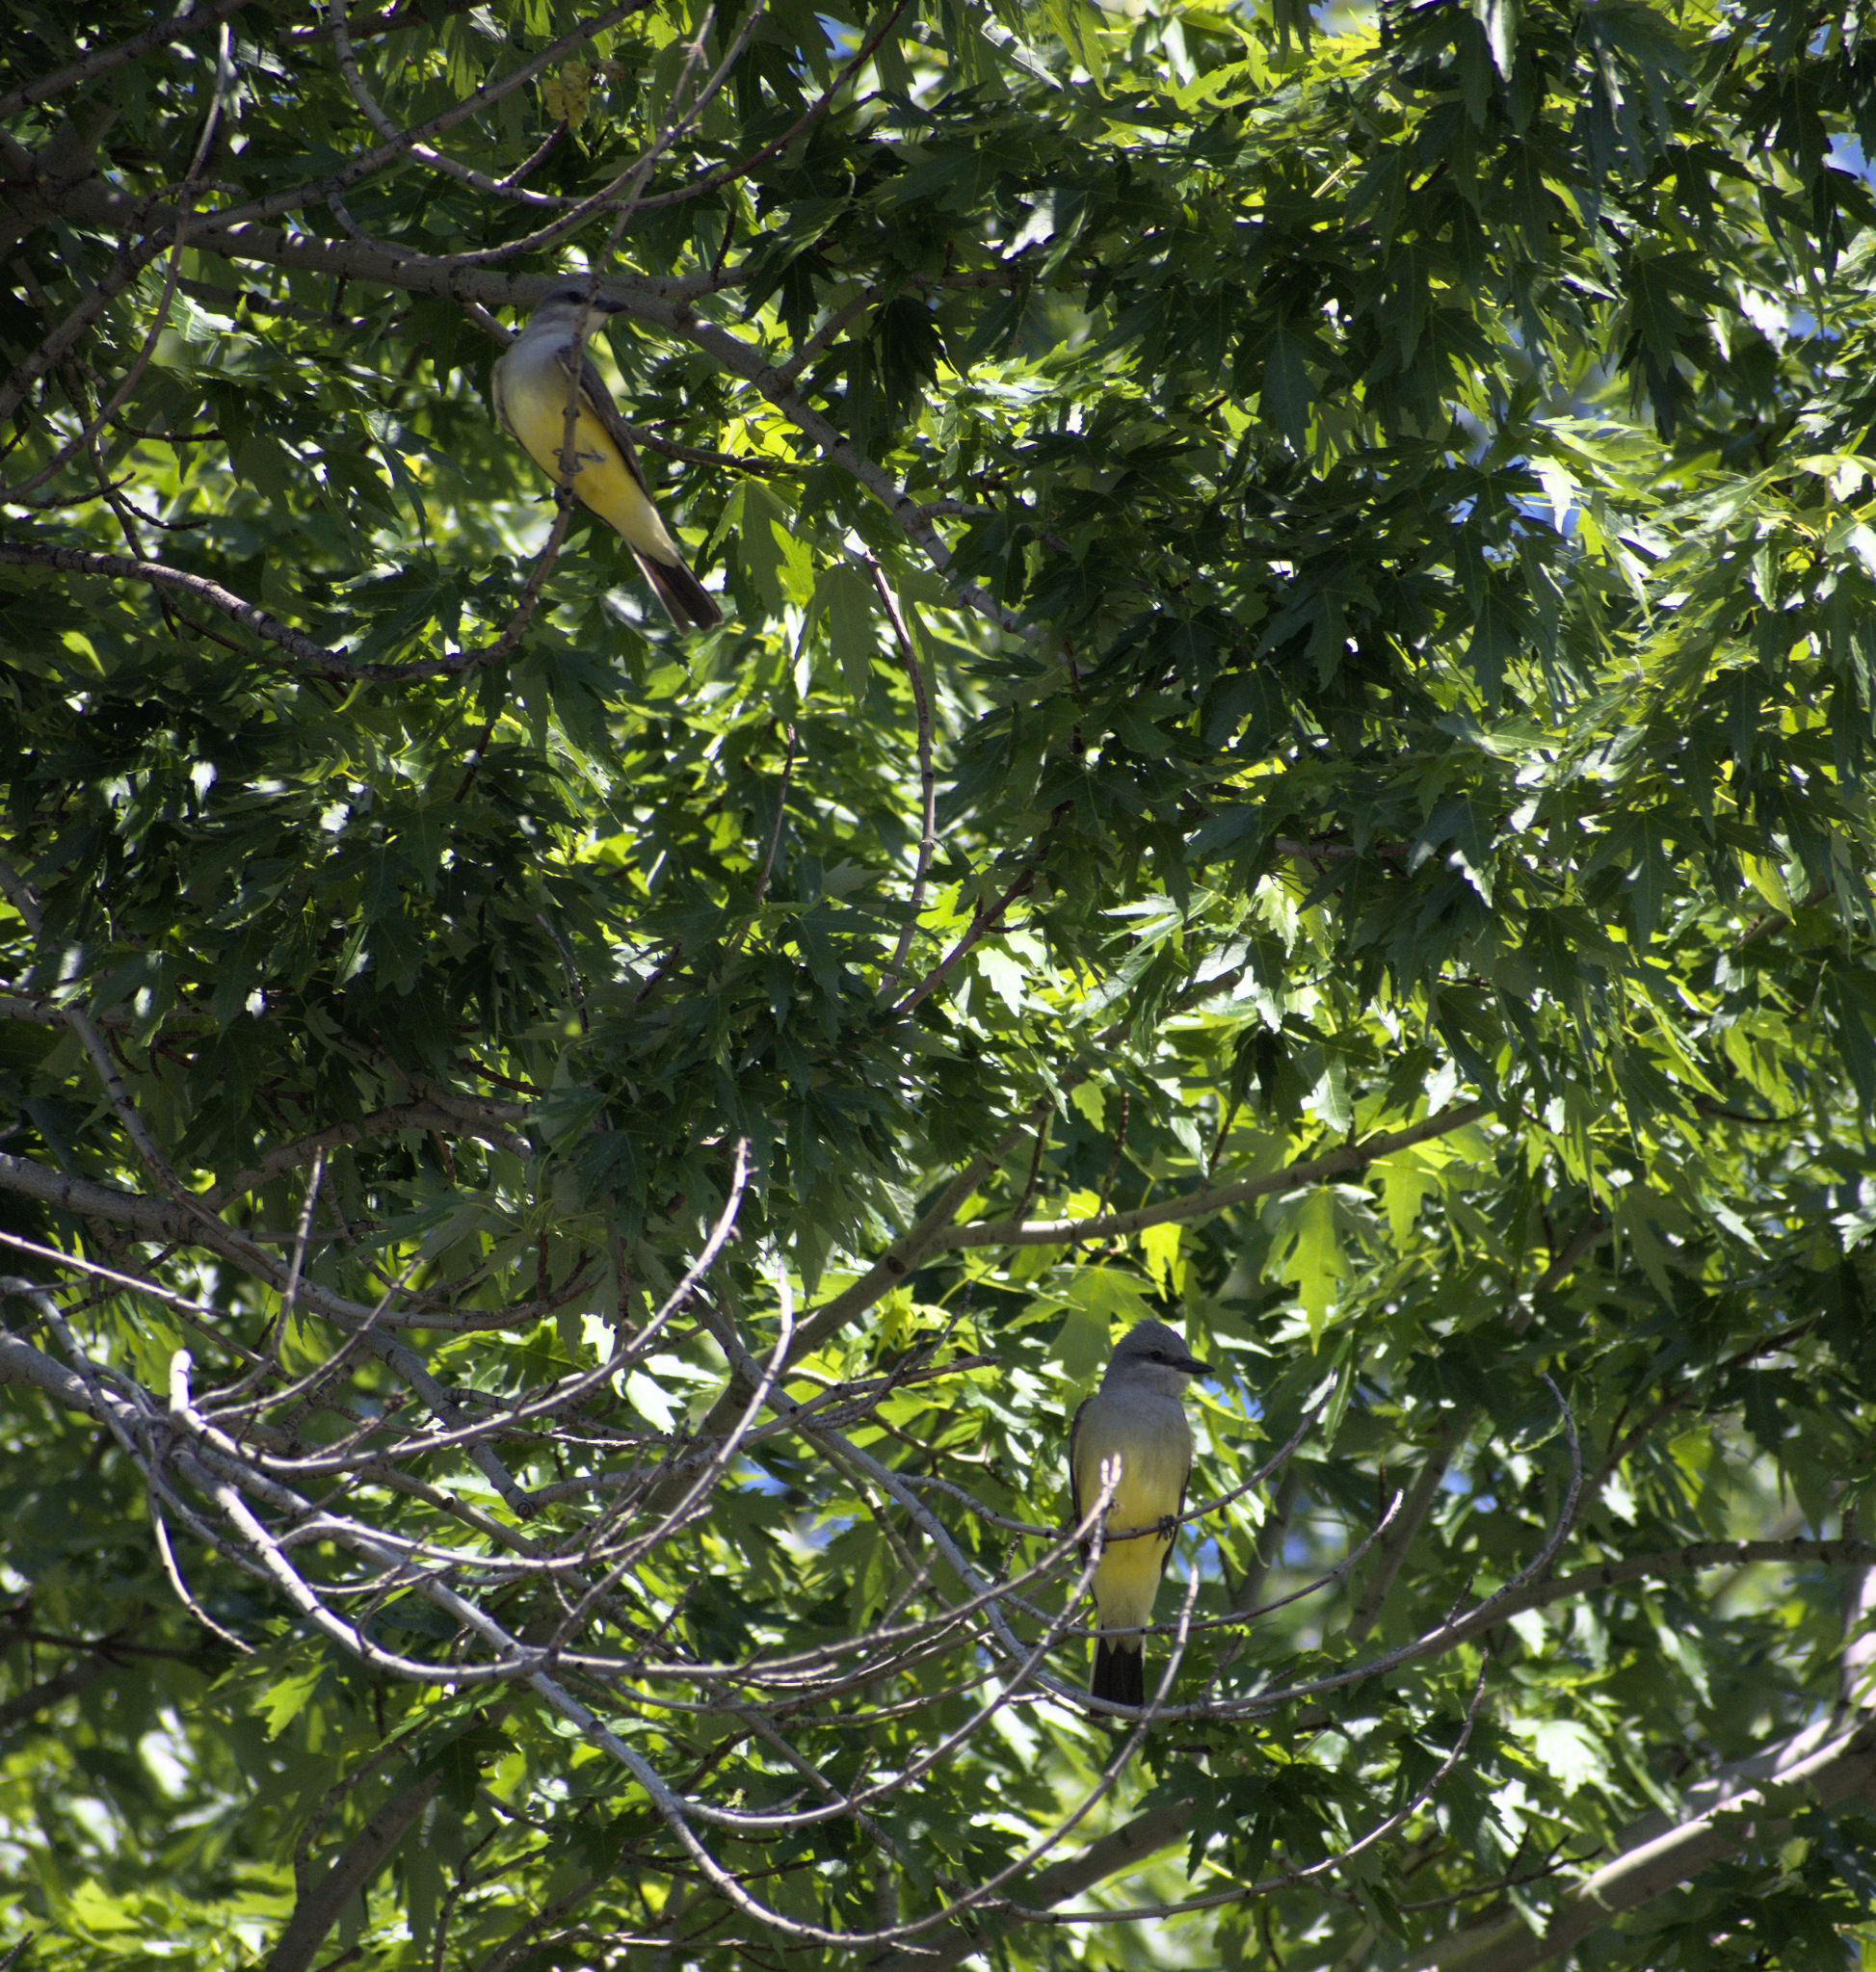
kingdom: Animalia
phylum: Chordata
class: Aves
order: Passeriformes
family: Tyrannidae
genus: Tyrannus
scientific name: Tyrannus verticalis
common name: Western kingbird
